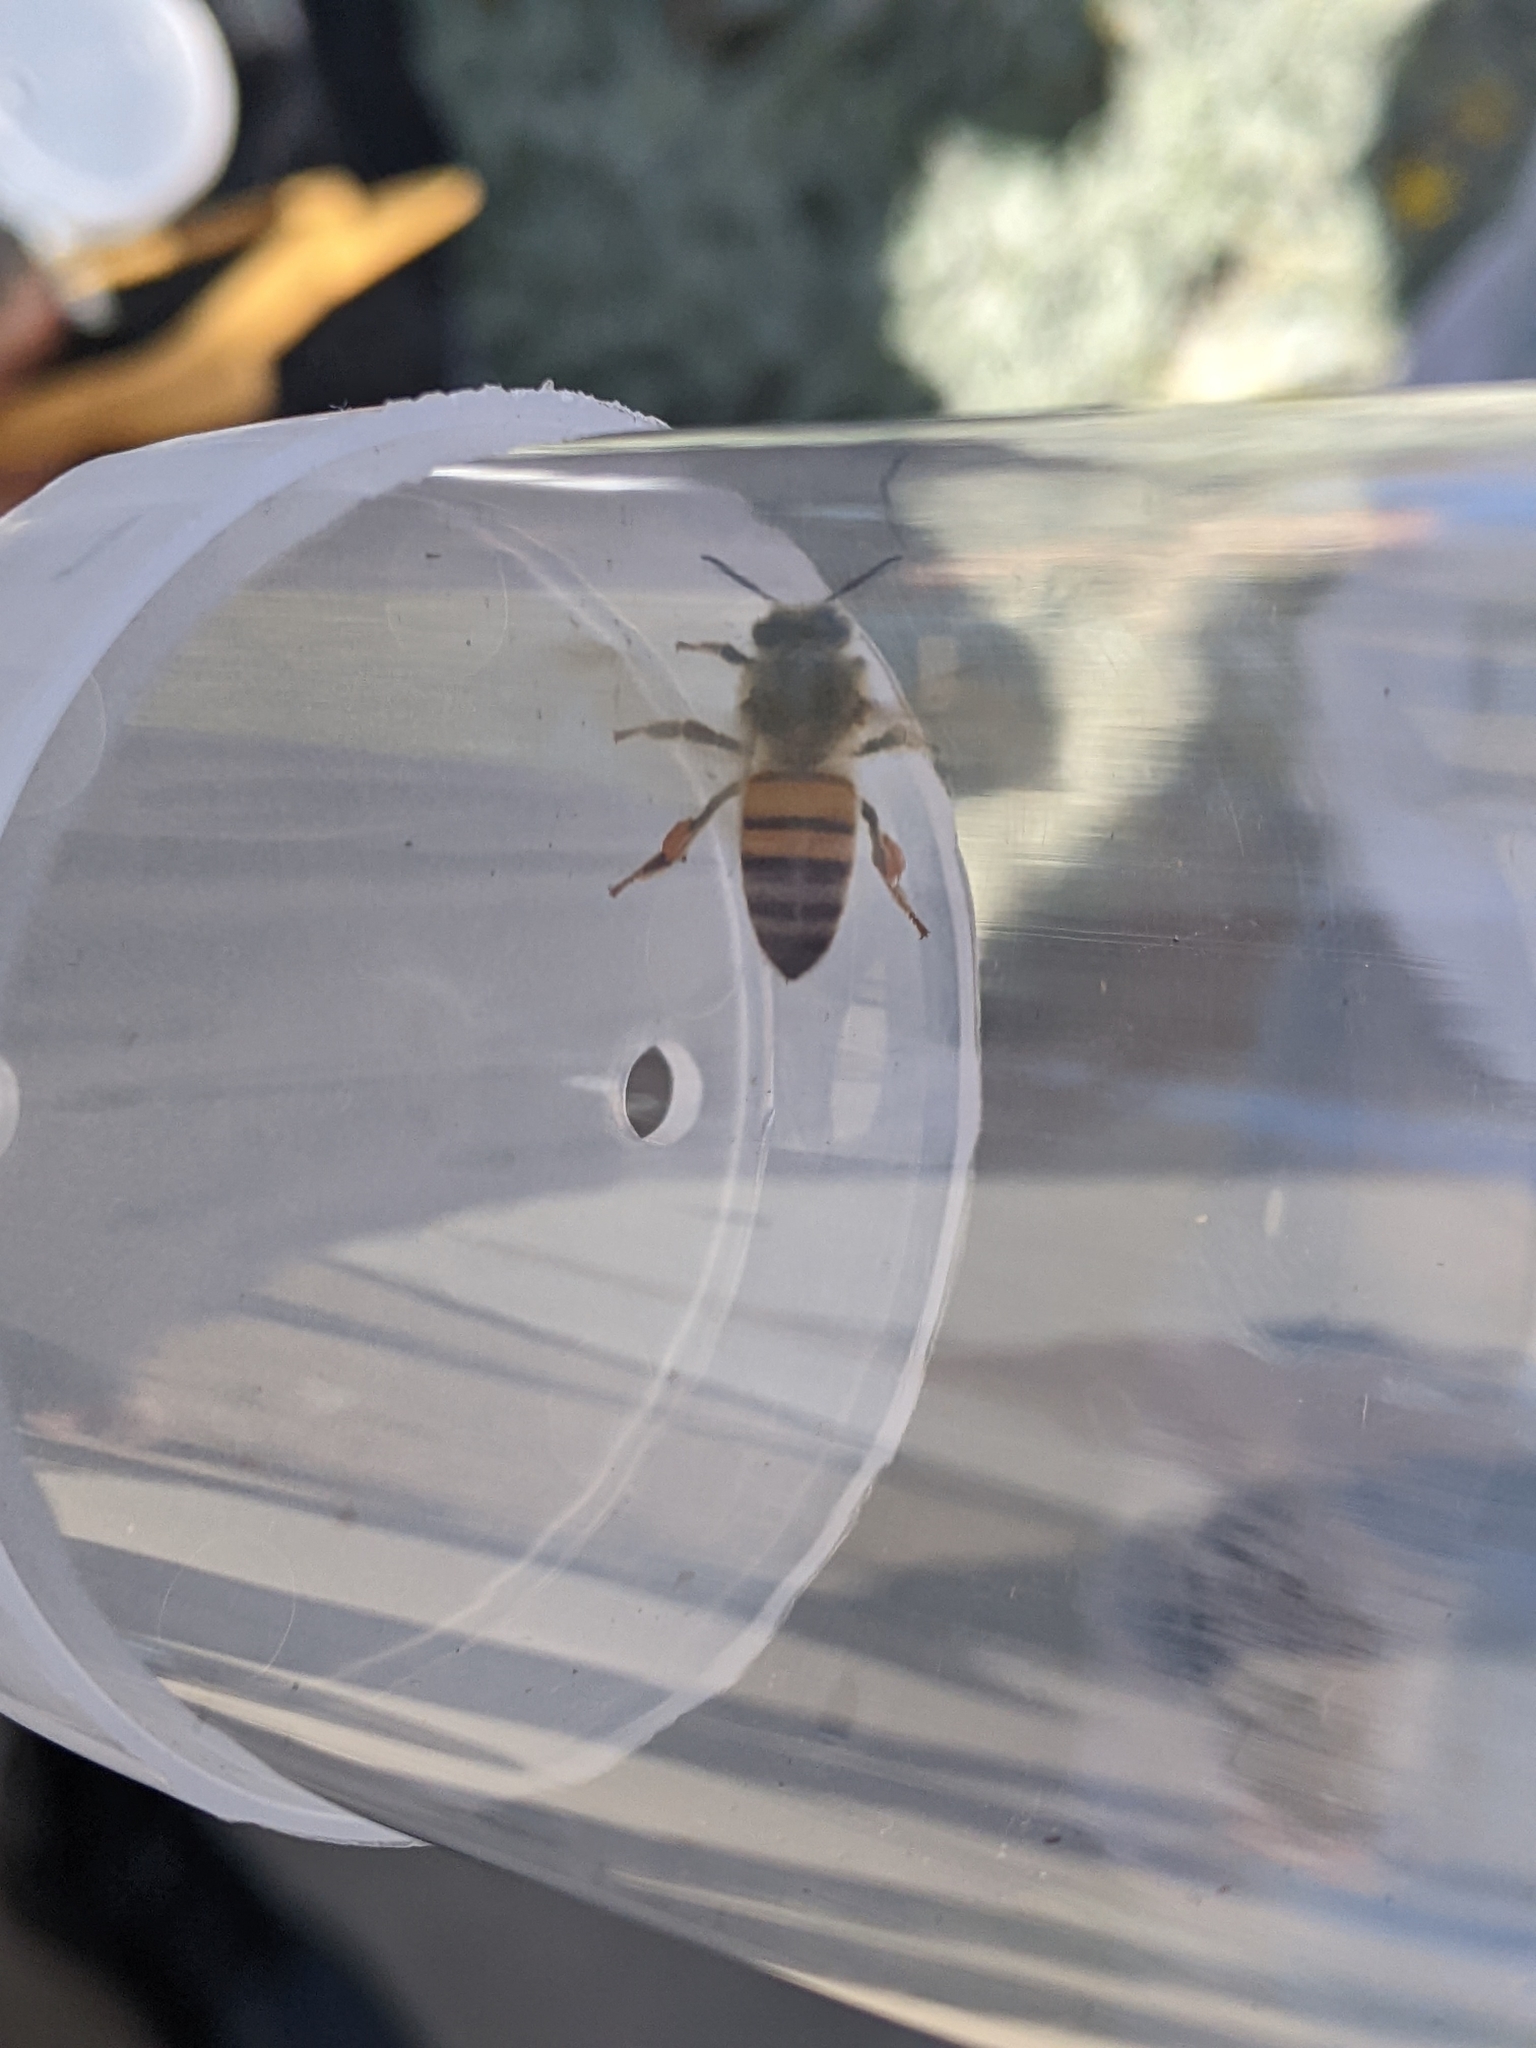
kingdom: Animalia
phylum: Arthropoda
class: Insecta
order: Hymenoptera
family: Apidae
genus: Apis
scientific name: Apis mellifera
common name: Honey bee
